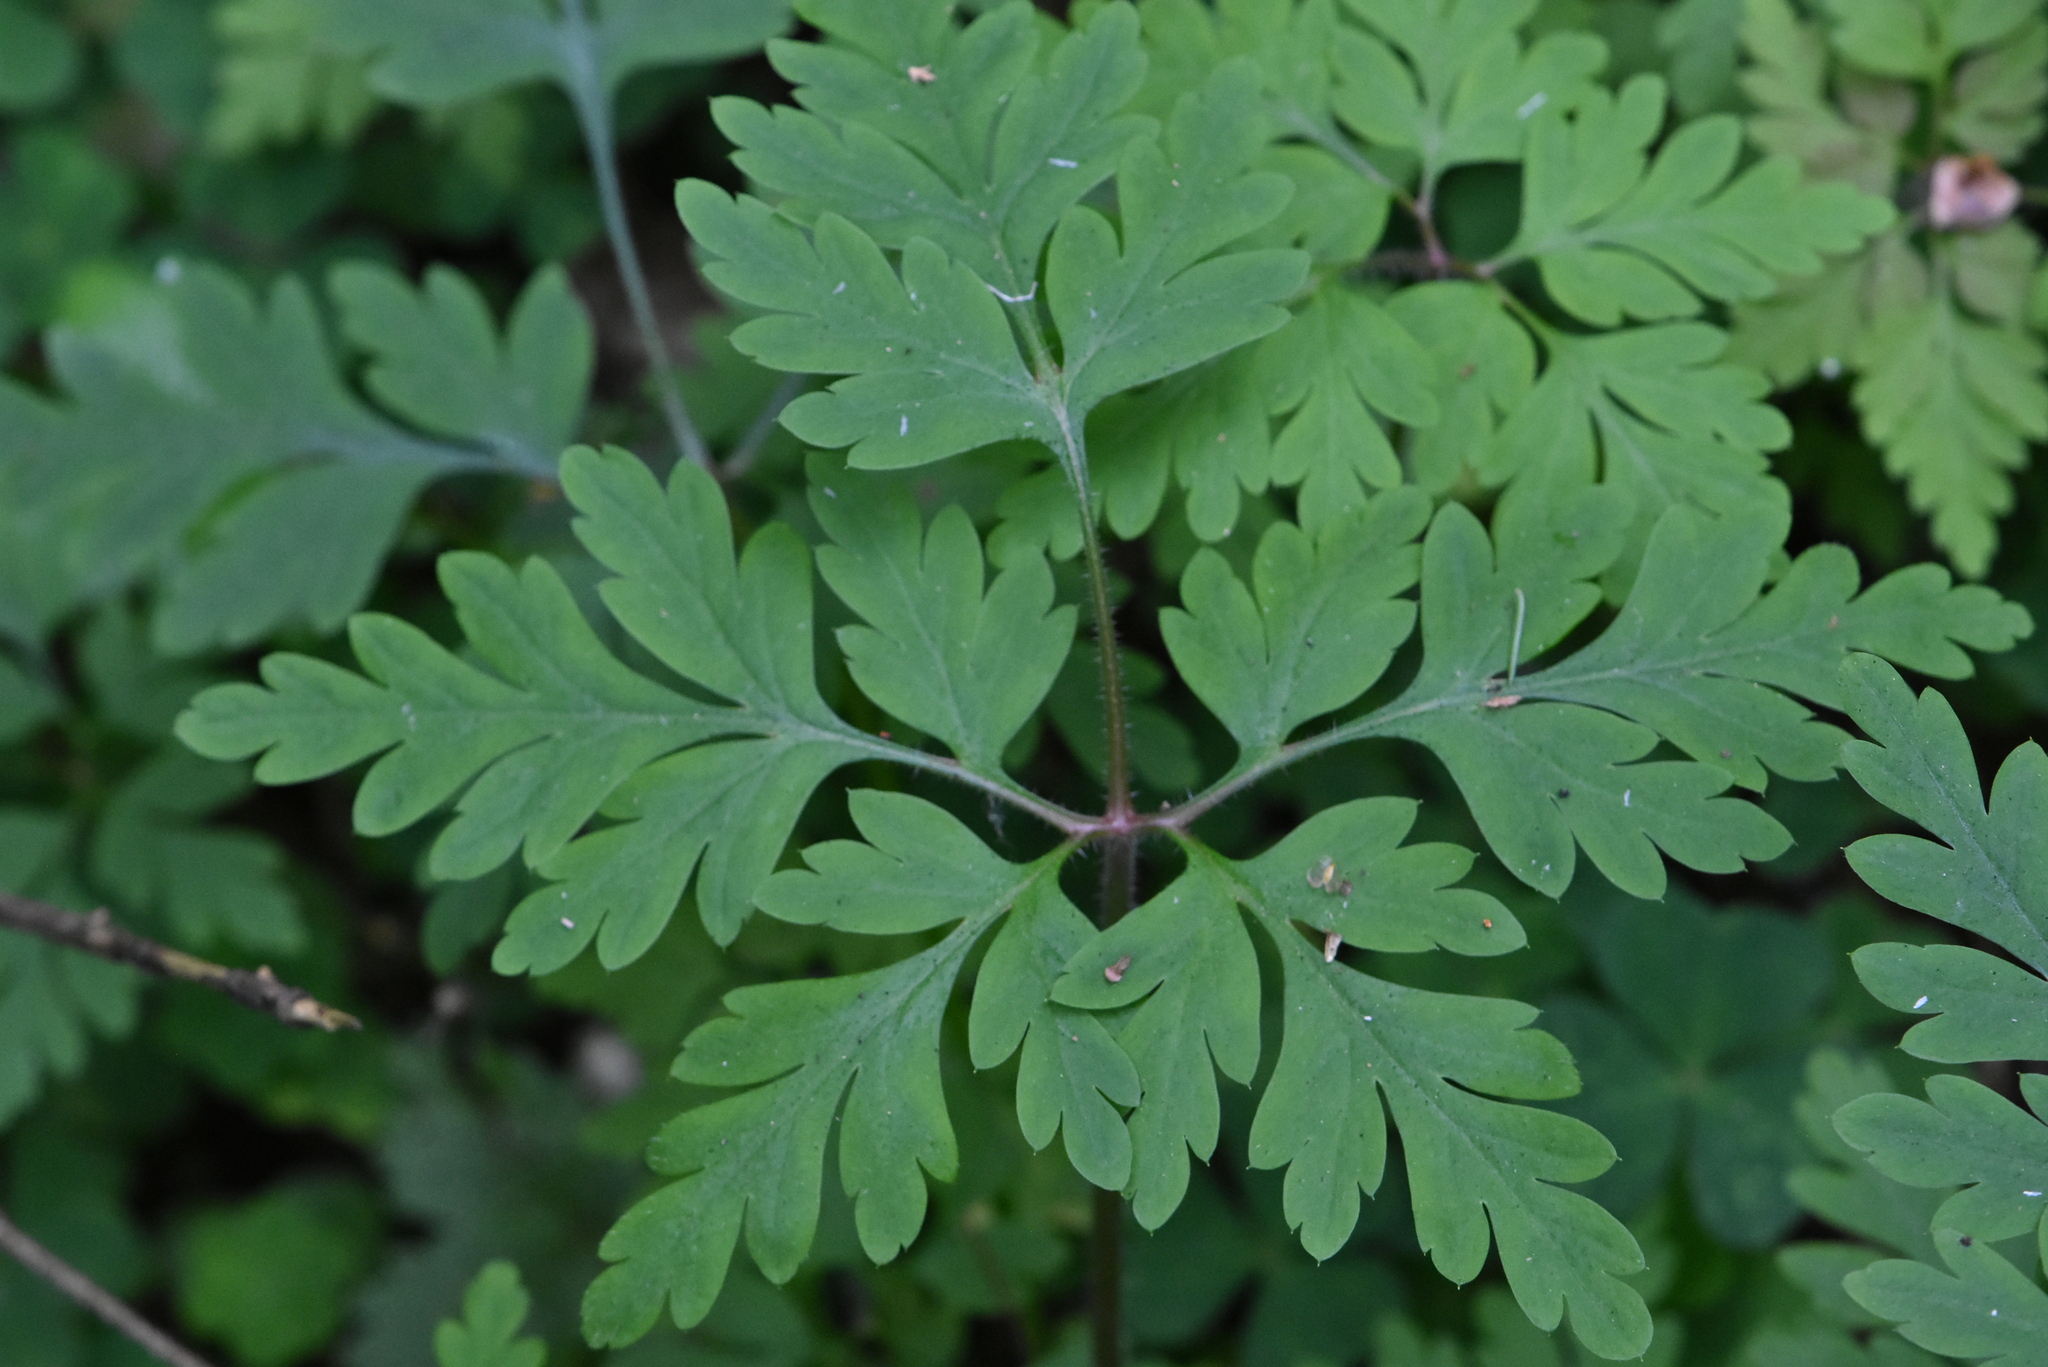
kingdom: Plantae
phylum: Tracheophyta
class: Magnoliopsida
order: Geraniales
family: Geraniaceae
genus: Geranium
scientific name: Geranium robertianum
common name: Herb-robert
